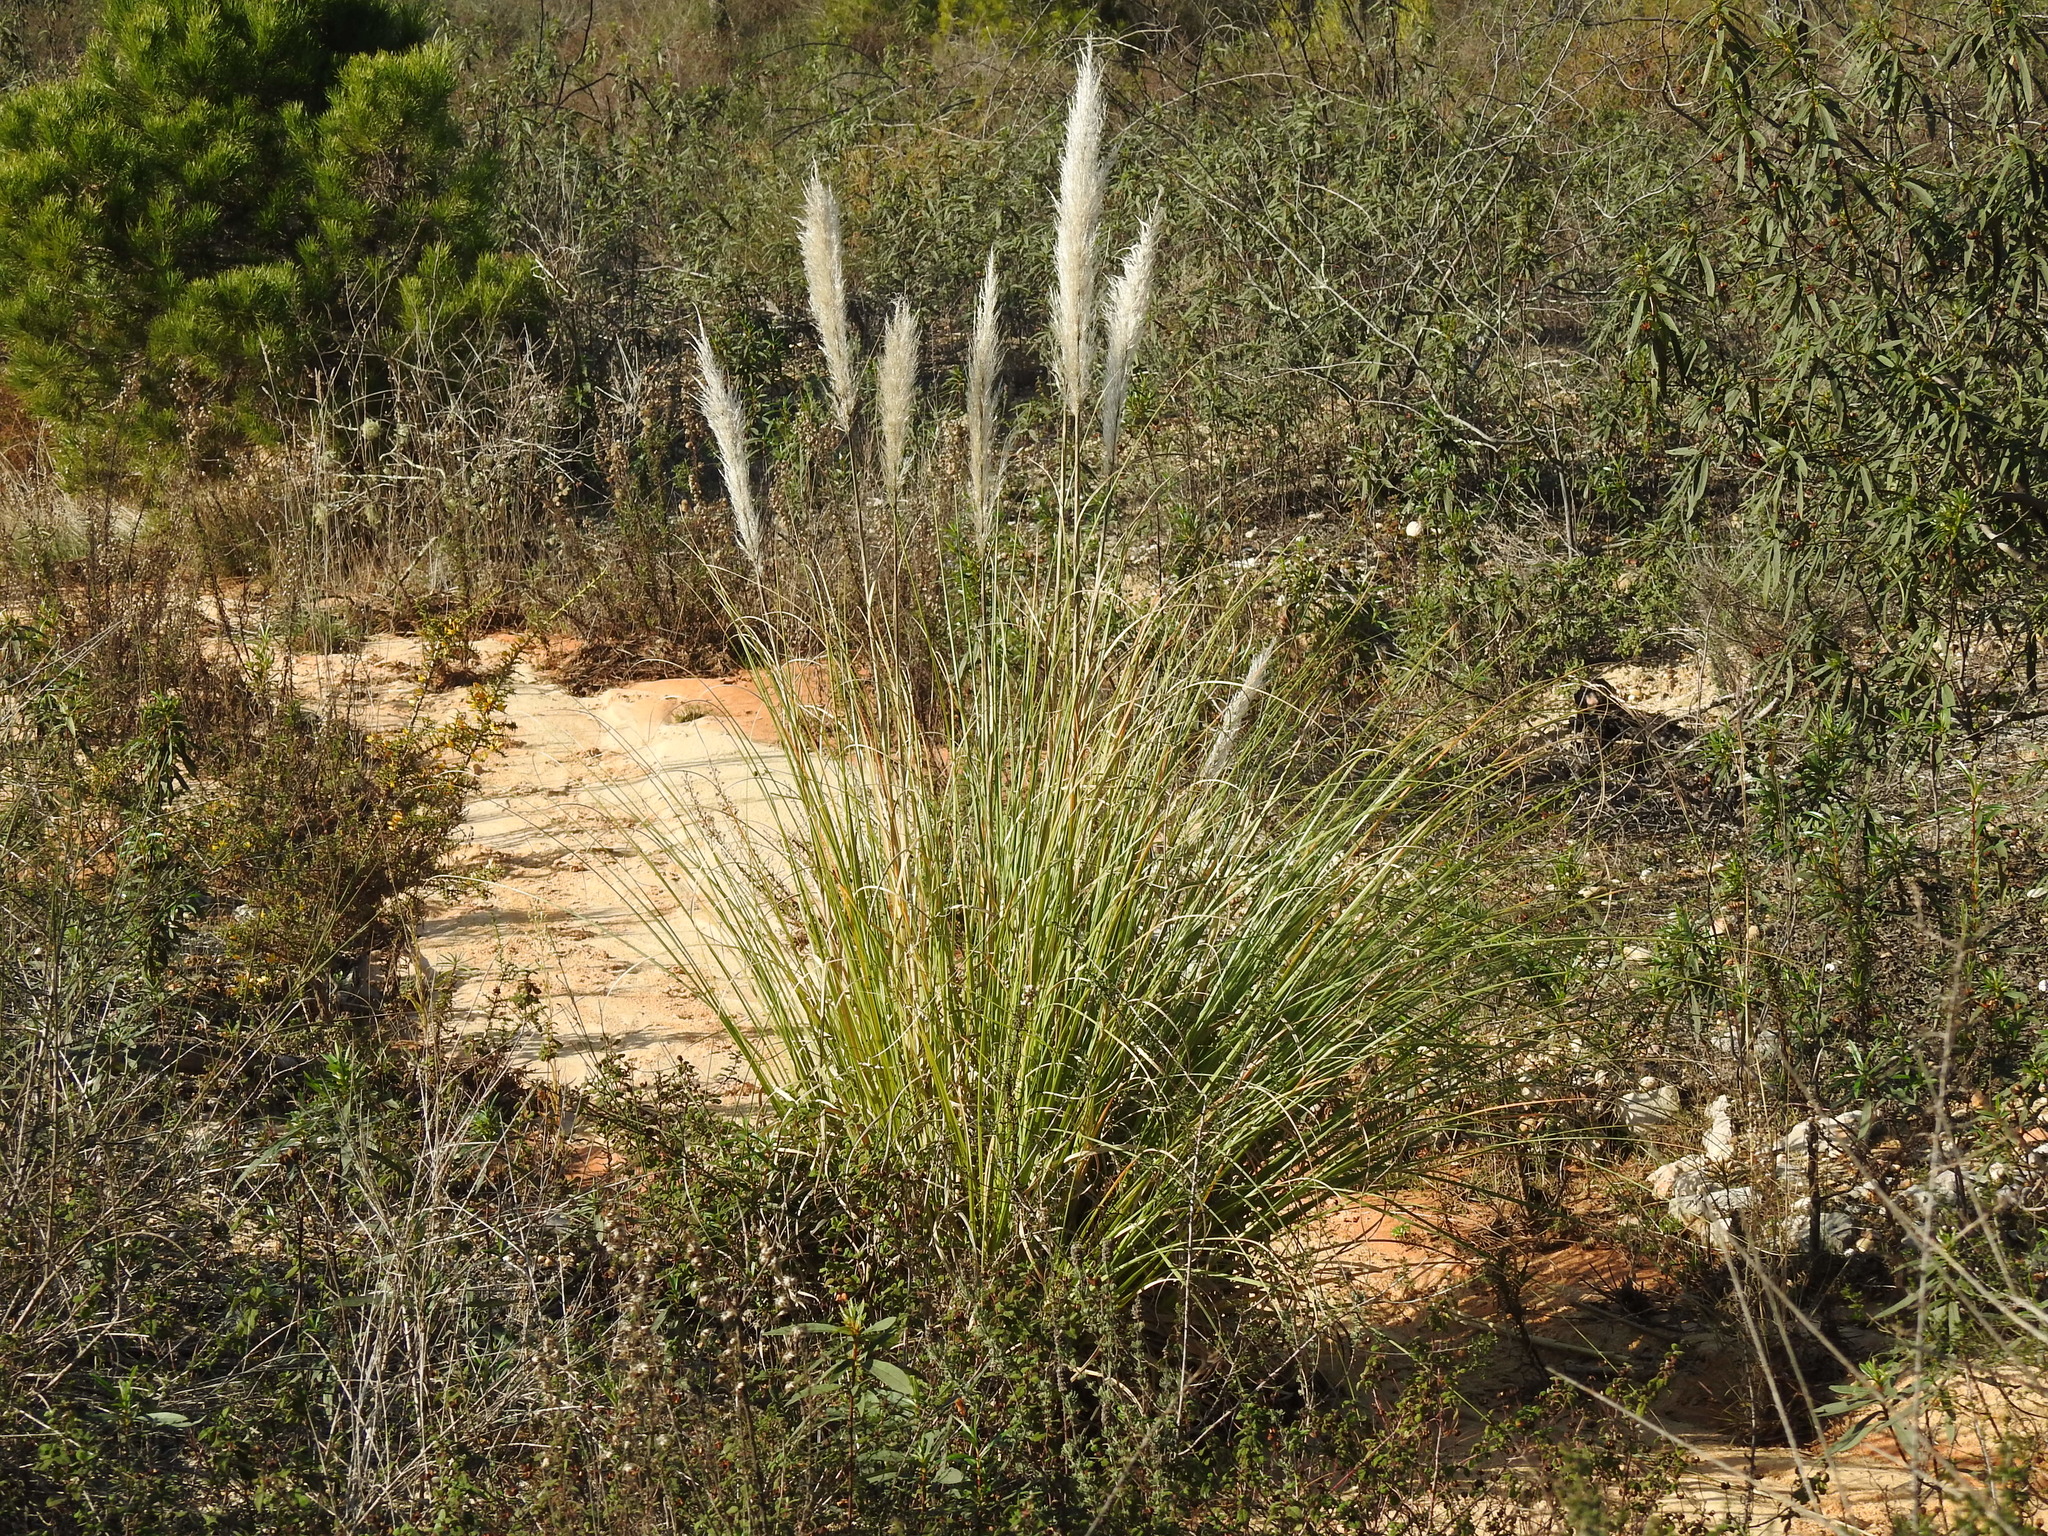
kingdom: Plantae
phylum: Tracheophyta
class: Liliopsida
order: Poales
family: Poaceae
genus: Cortaderia
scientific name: Cortaderia selloana
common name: Uruguayan pampas grass
